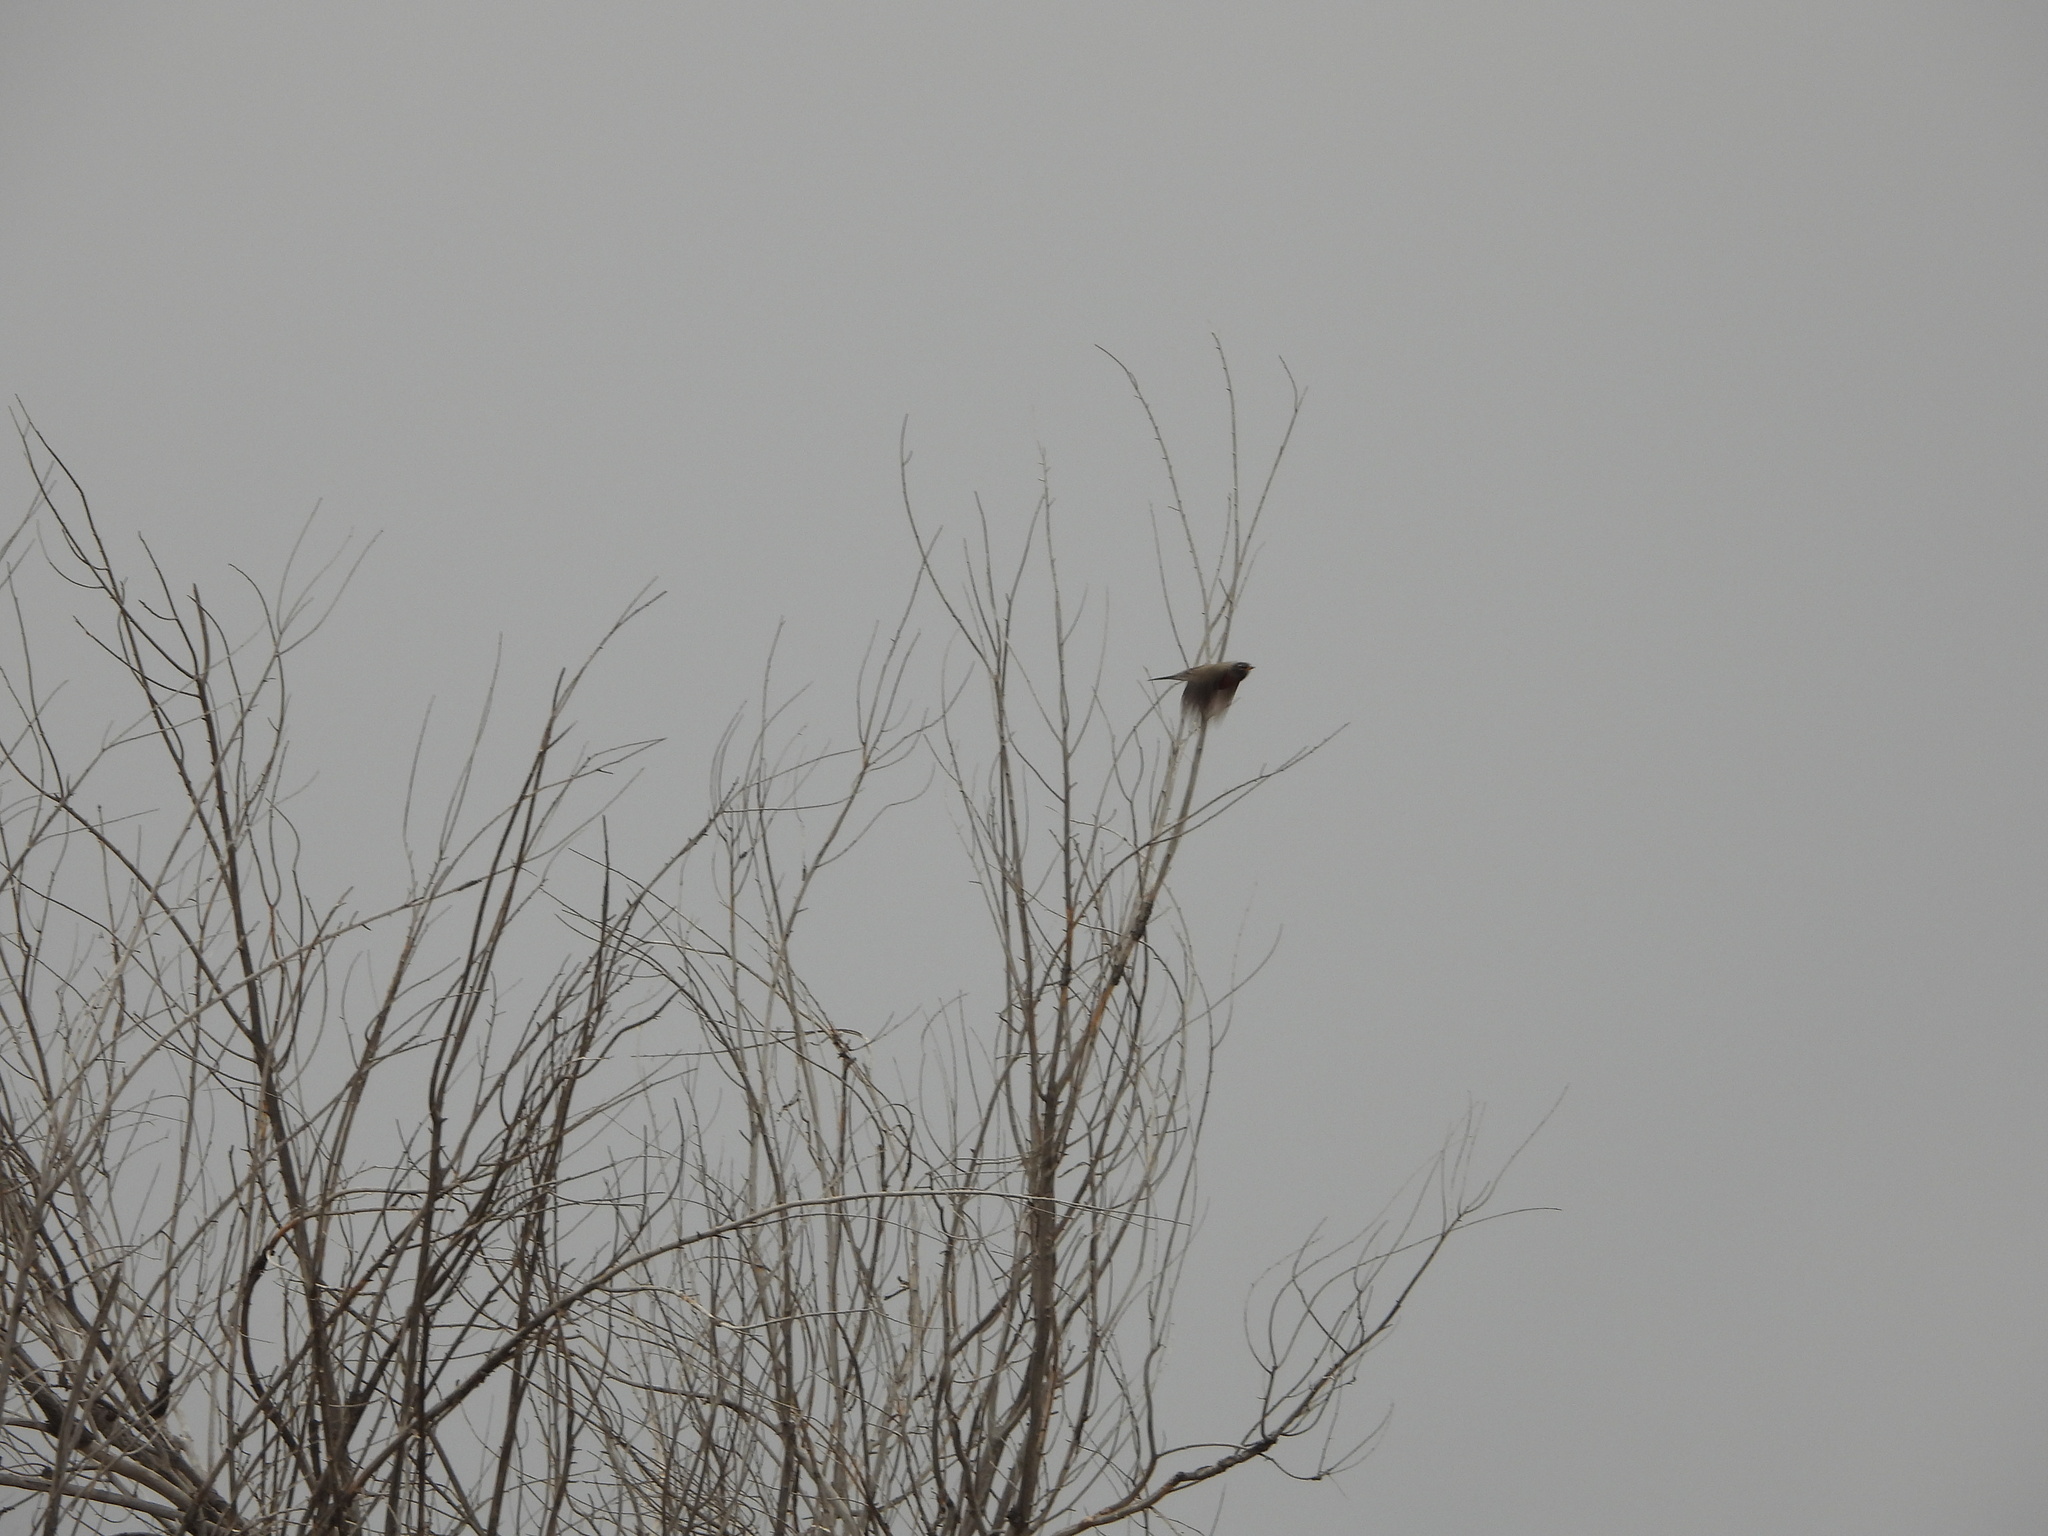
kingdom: Animalia
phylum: Chordata
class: Aves
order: Passeriformes
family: Turdidae
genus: Turdus
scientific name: Turdus migratorius
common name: American robin
